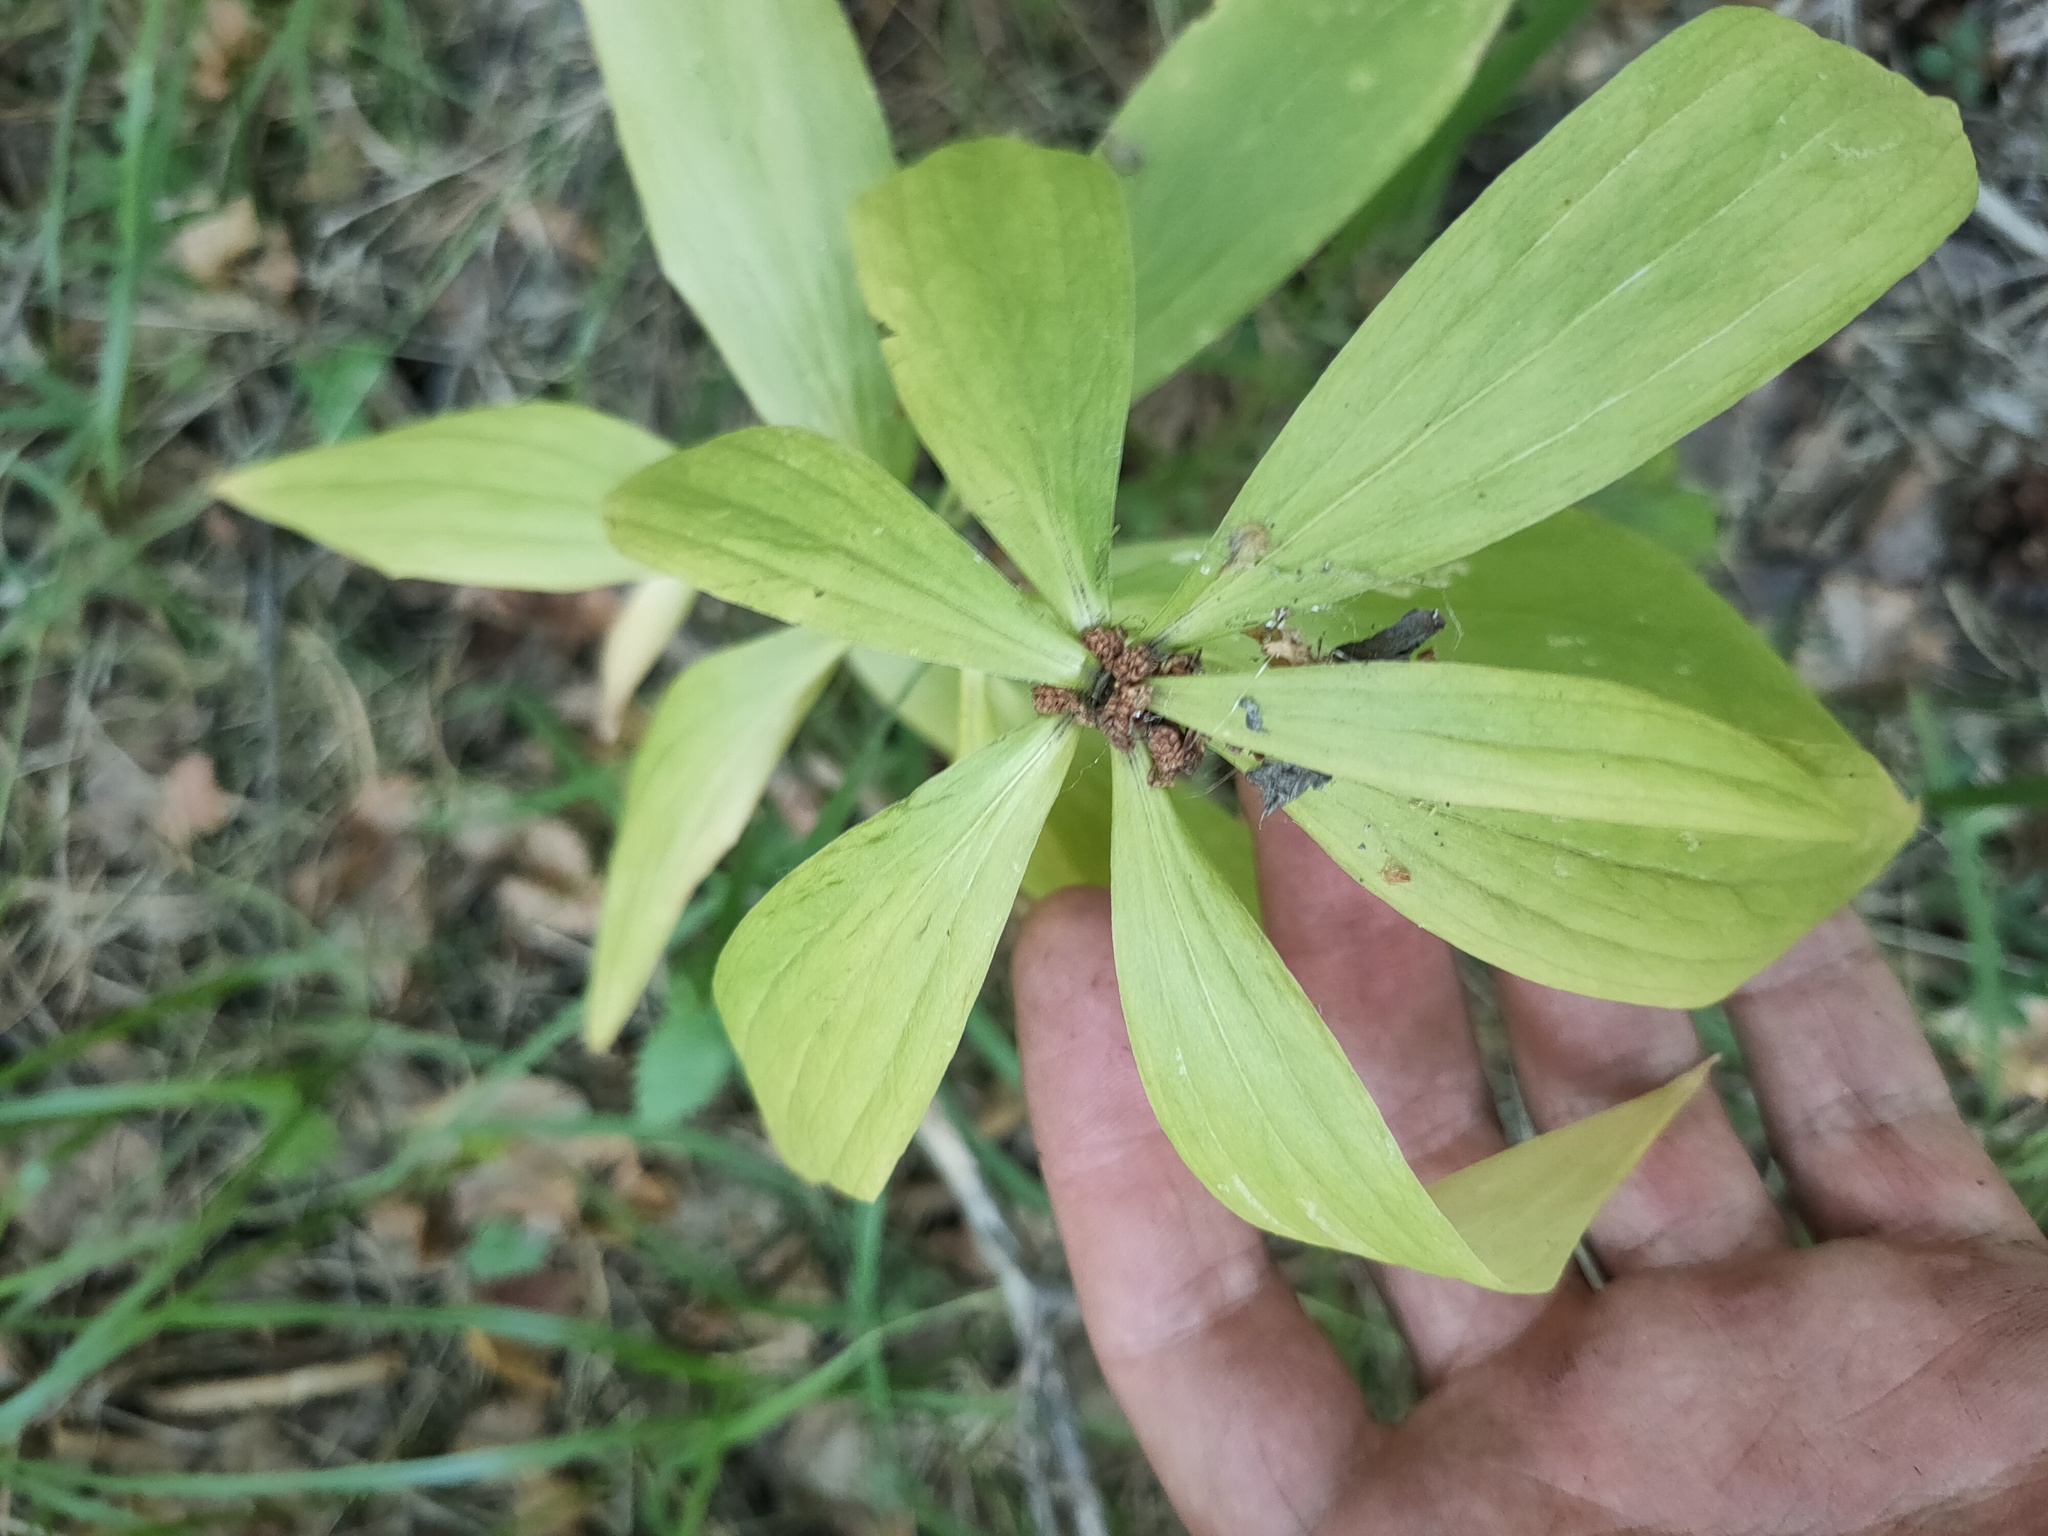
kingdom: Plantae
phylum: Tracheophyta
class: Liliopsida
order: Liliales
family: Liliaceae
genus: Lilium
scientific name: Lilium martagon
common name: Martagon lily
